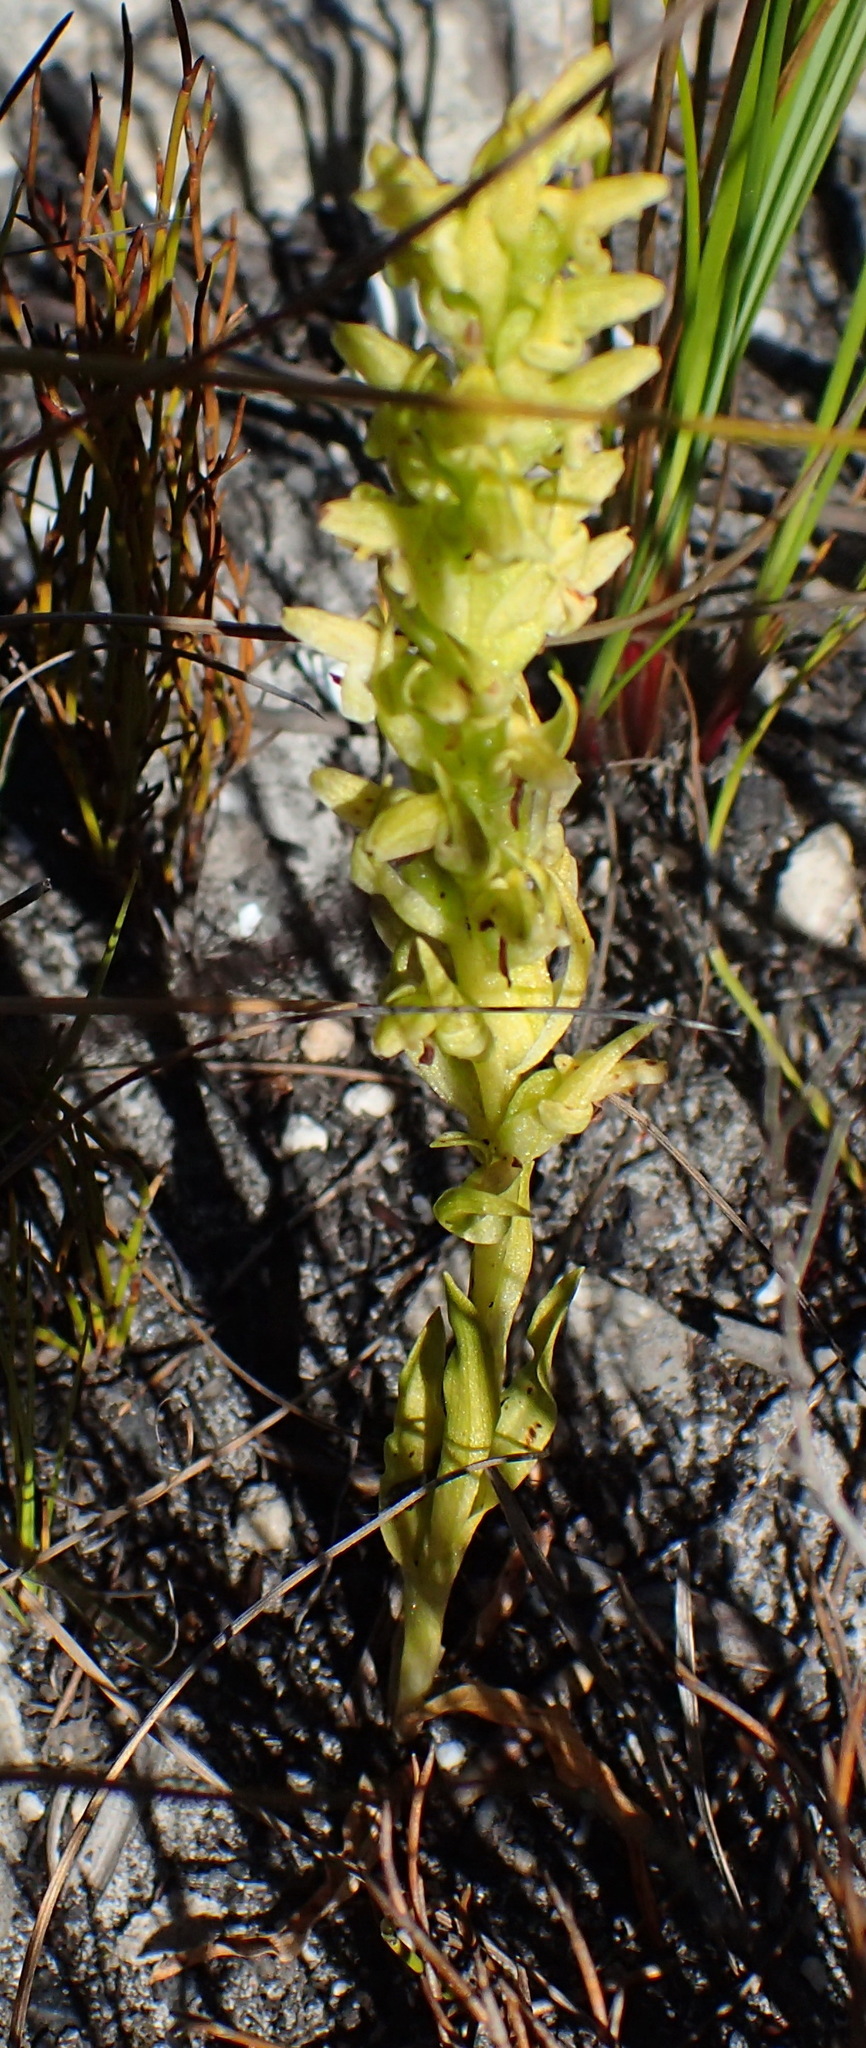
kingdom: Plantae
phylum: Tracheophyta
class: Liliopsida
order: Asparagales
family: Orchidaceae
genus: Disa
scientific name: Disa cylindrica
